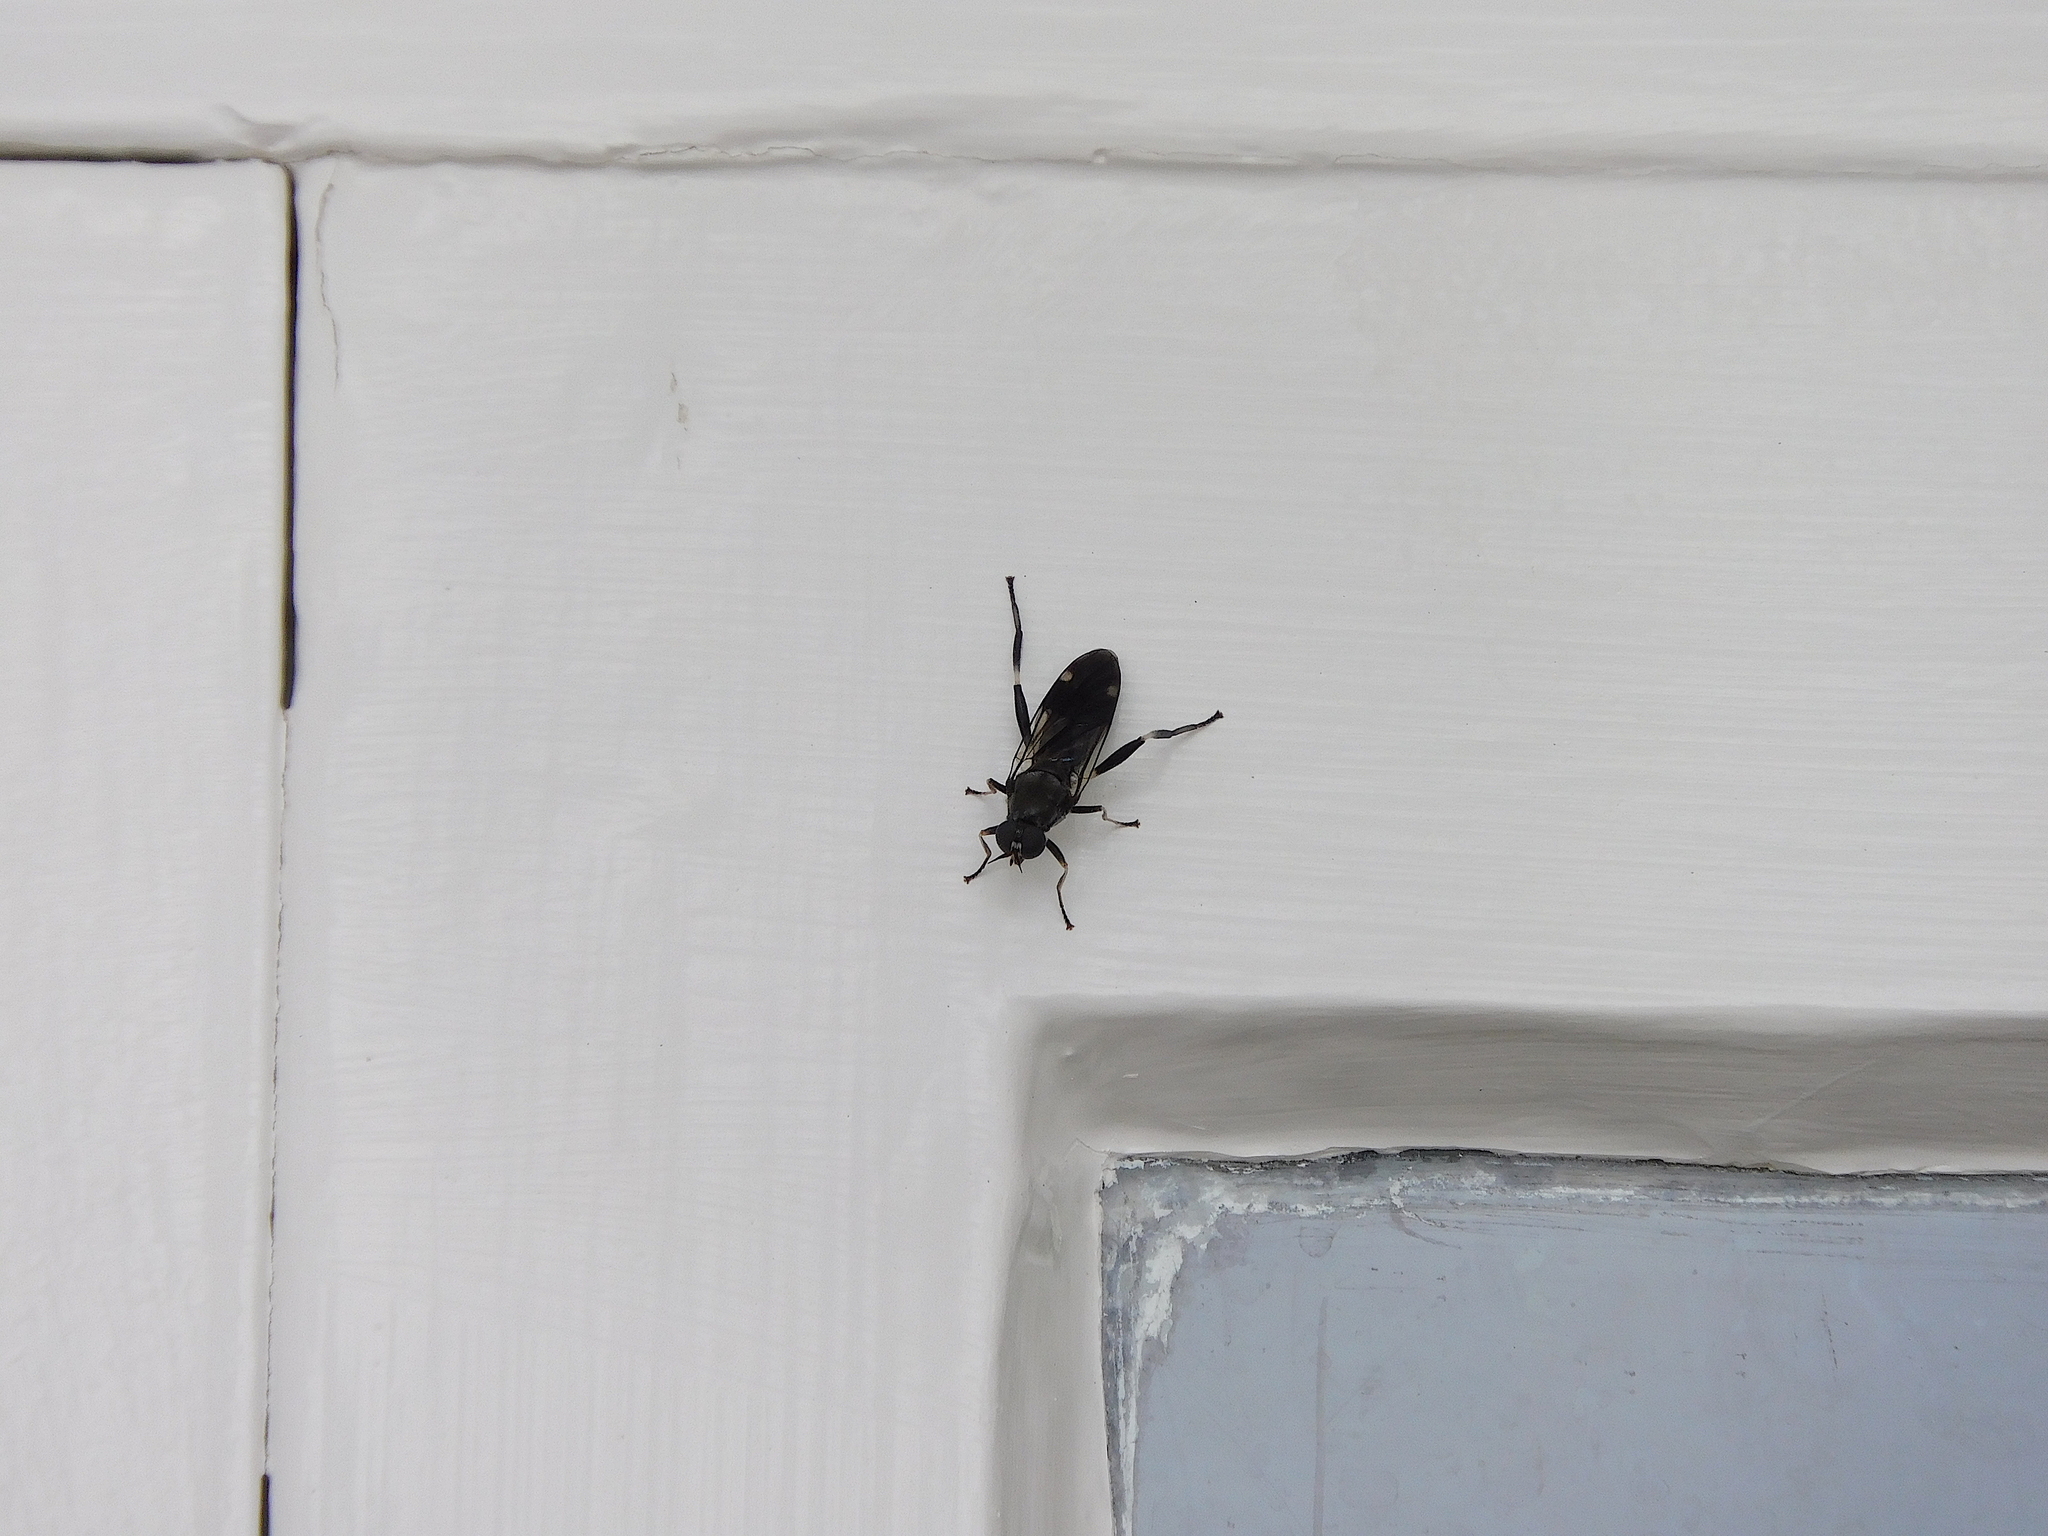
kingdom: Animalia
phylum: Arthropoda
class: Insecta
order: Diptera
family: Stratiomyidae
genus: Exaireta
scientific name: Exaireta spinigera
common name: Blue soldier fly
